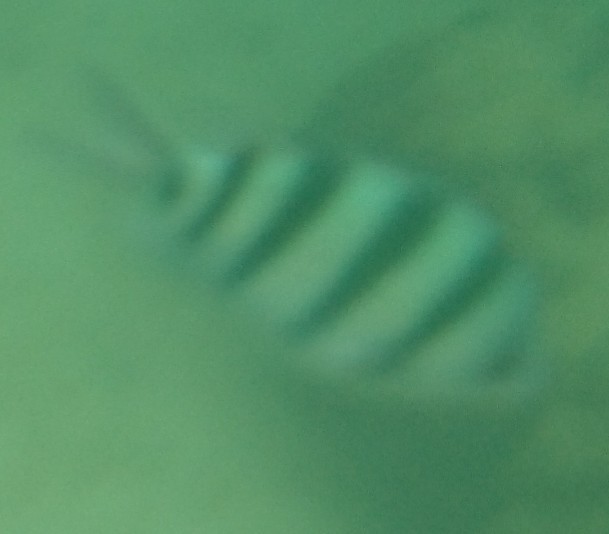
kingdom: Animalia
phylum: Chordata
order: Perciformes
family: Pomacentridae
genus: Abudefduf
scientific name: Abudefduf sexfasciatus
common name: Scissortail sergeant
